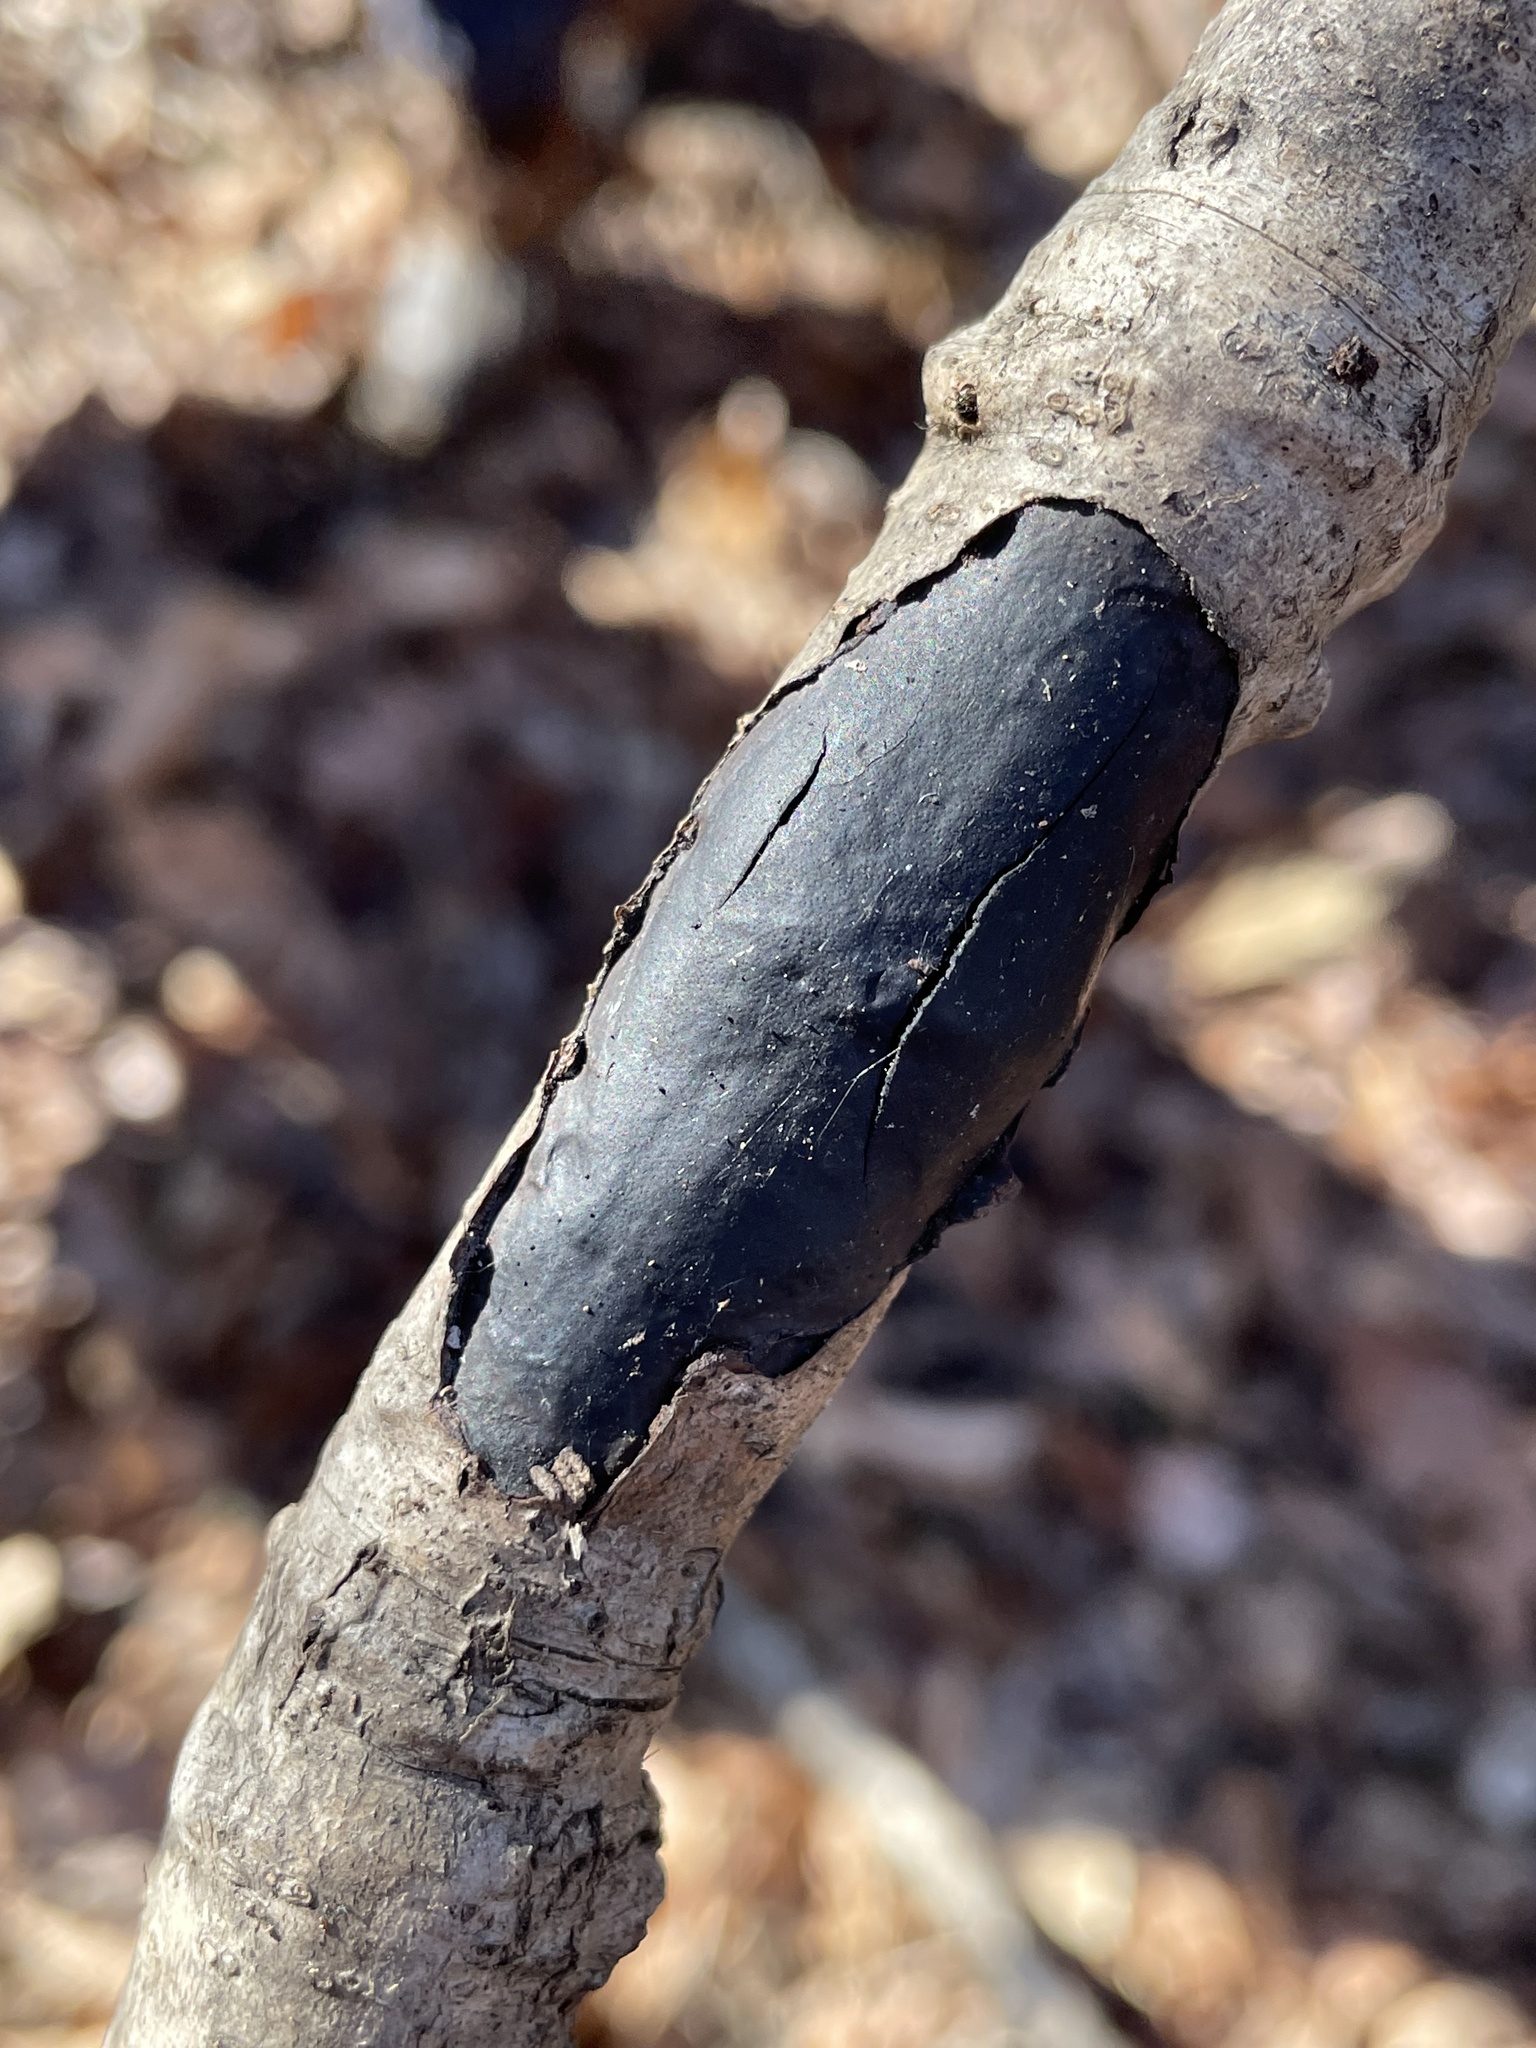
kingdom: Fungi
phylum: Ascomycota
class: Sordariomycetes
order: Xylariales
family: Diatrypaceae
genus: Diatrype
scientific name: Diatrype stigma
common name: Common tarcrust
